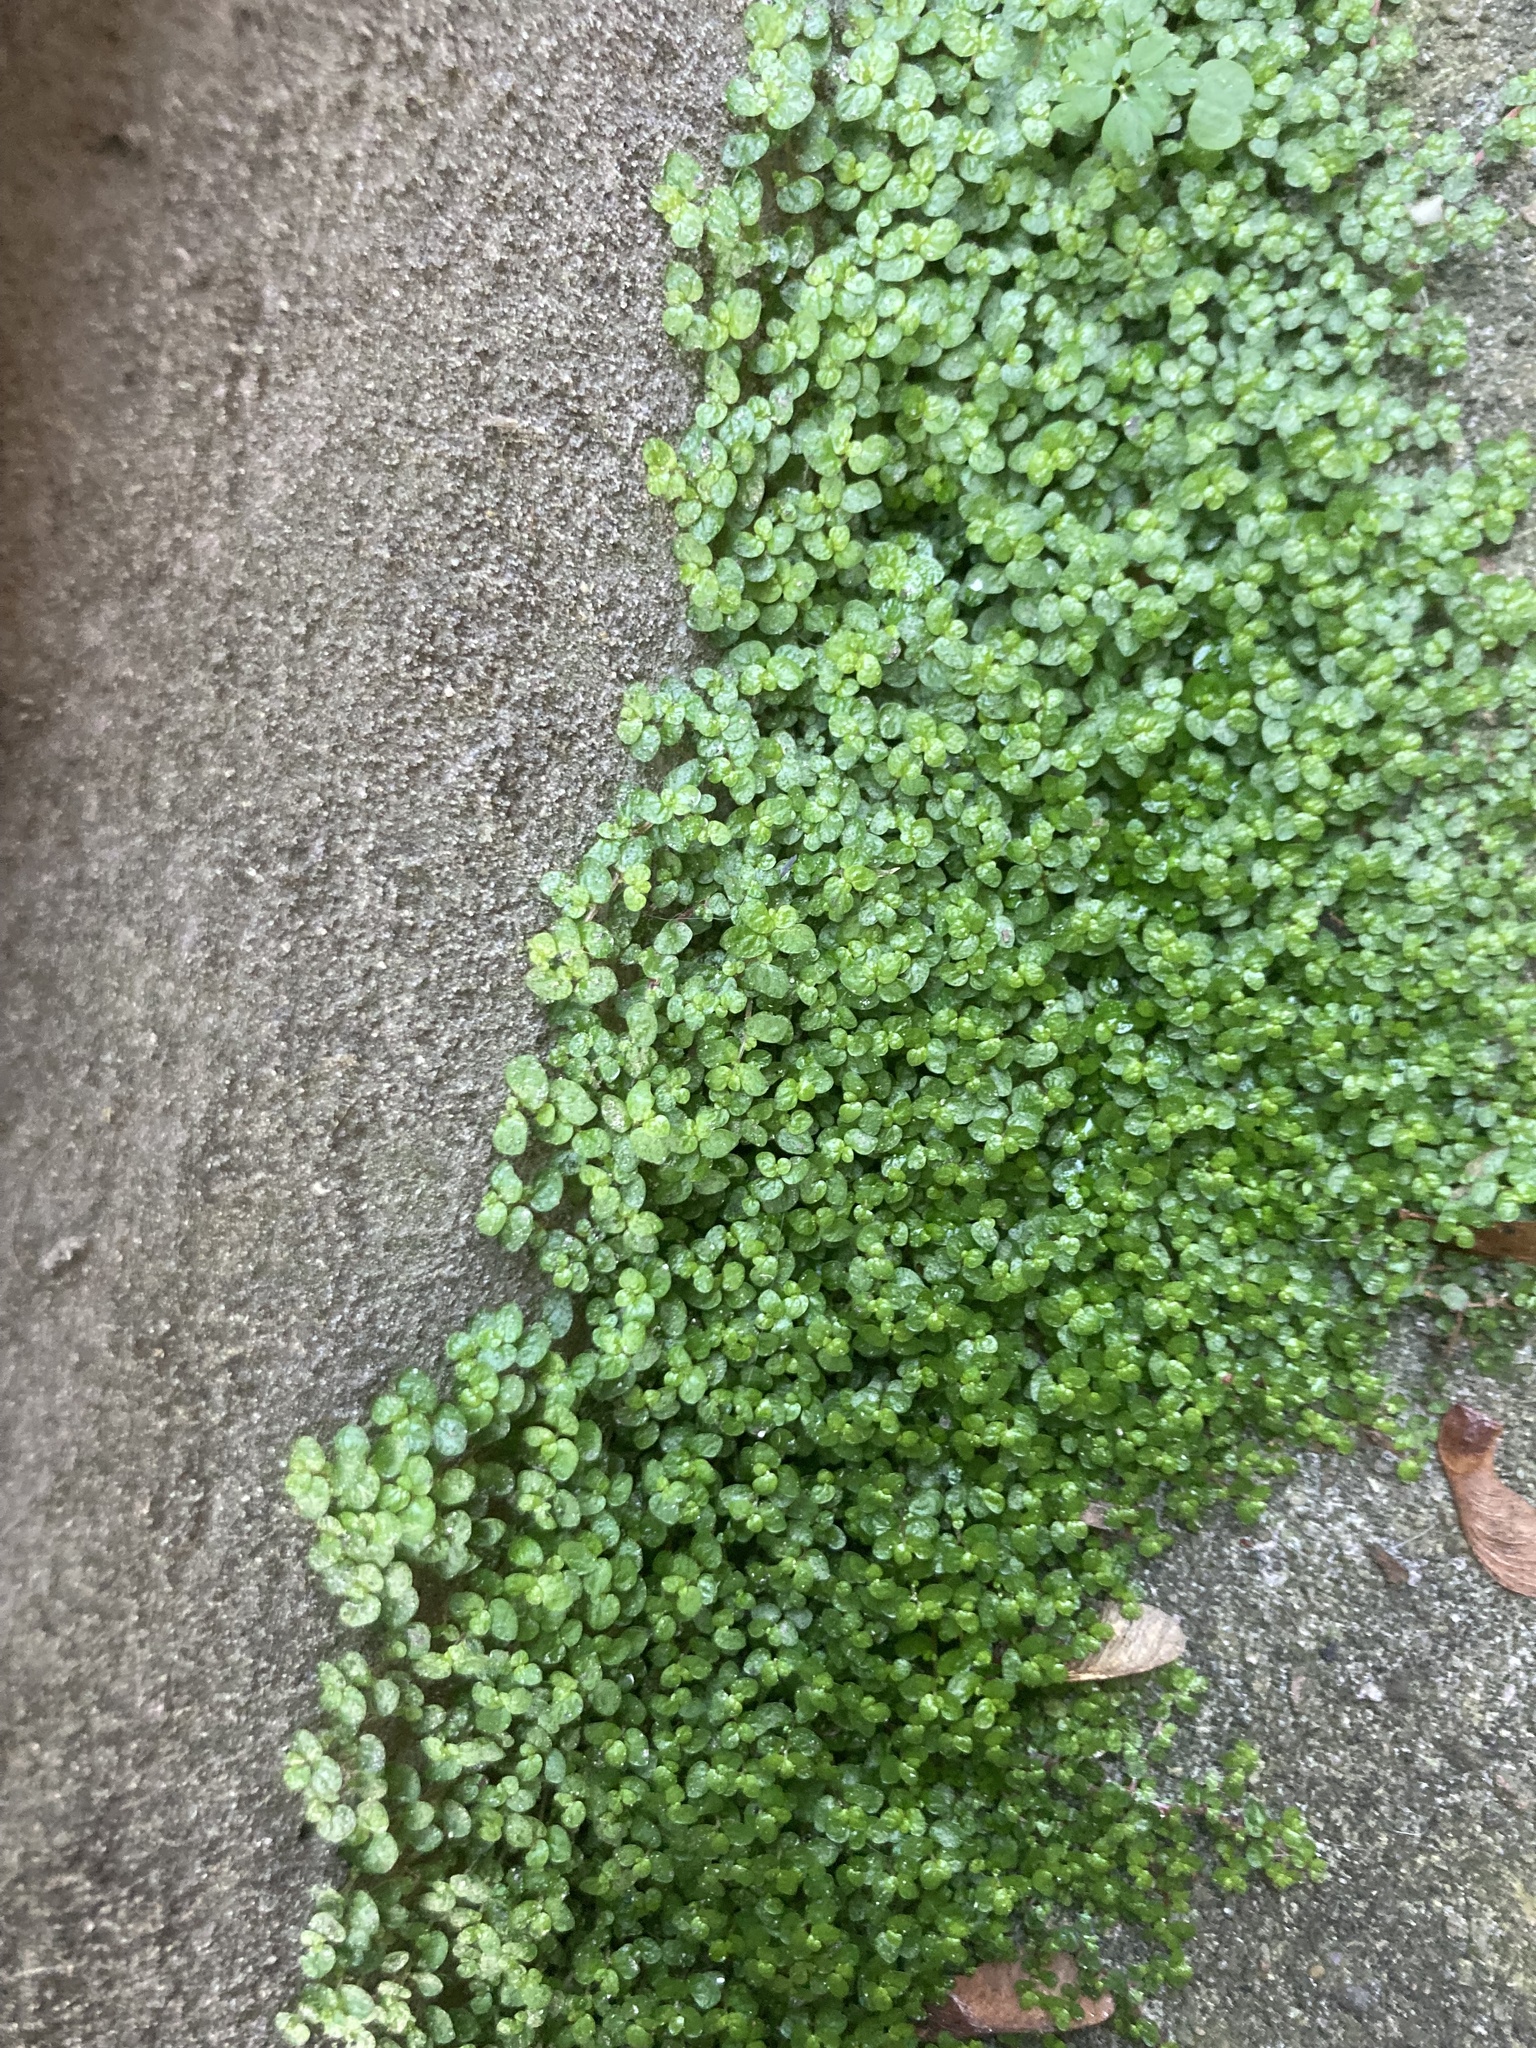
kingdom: Plantae
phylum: Tracheophyta
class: Magnoliopsida
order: Rosales
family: Urticaceae
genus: Soleirolia
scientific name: Soleirolia soleirolii
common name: Mind-your-own-business
